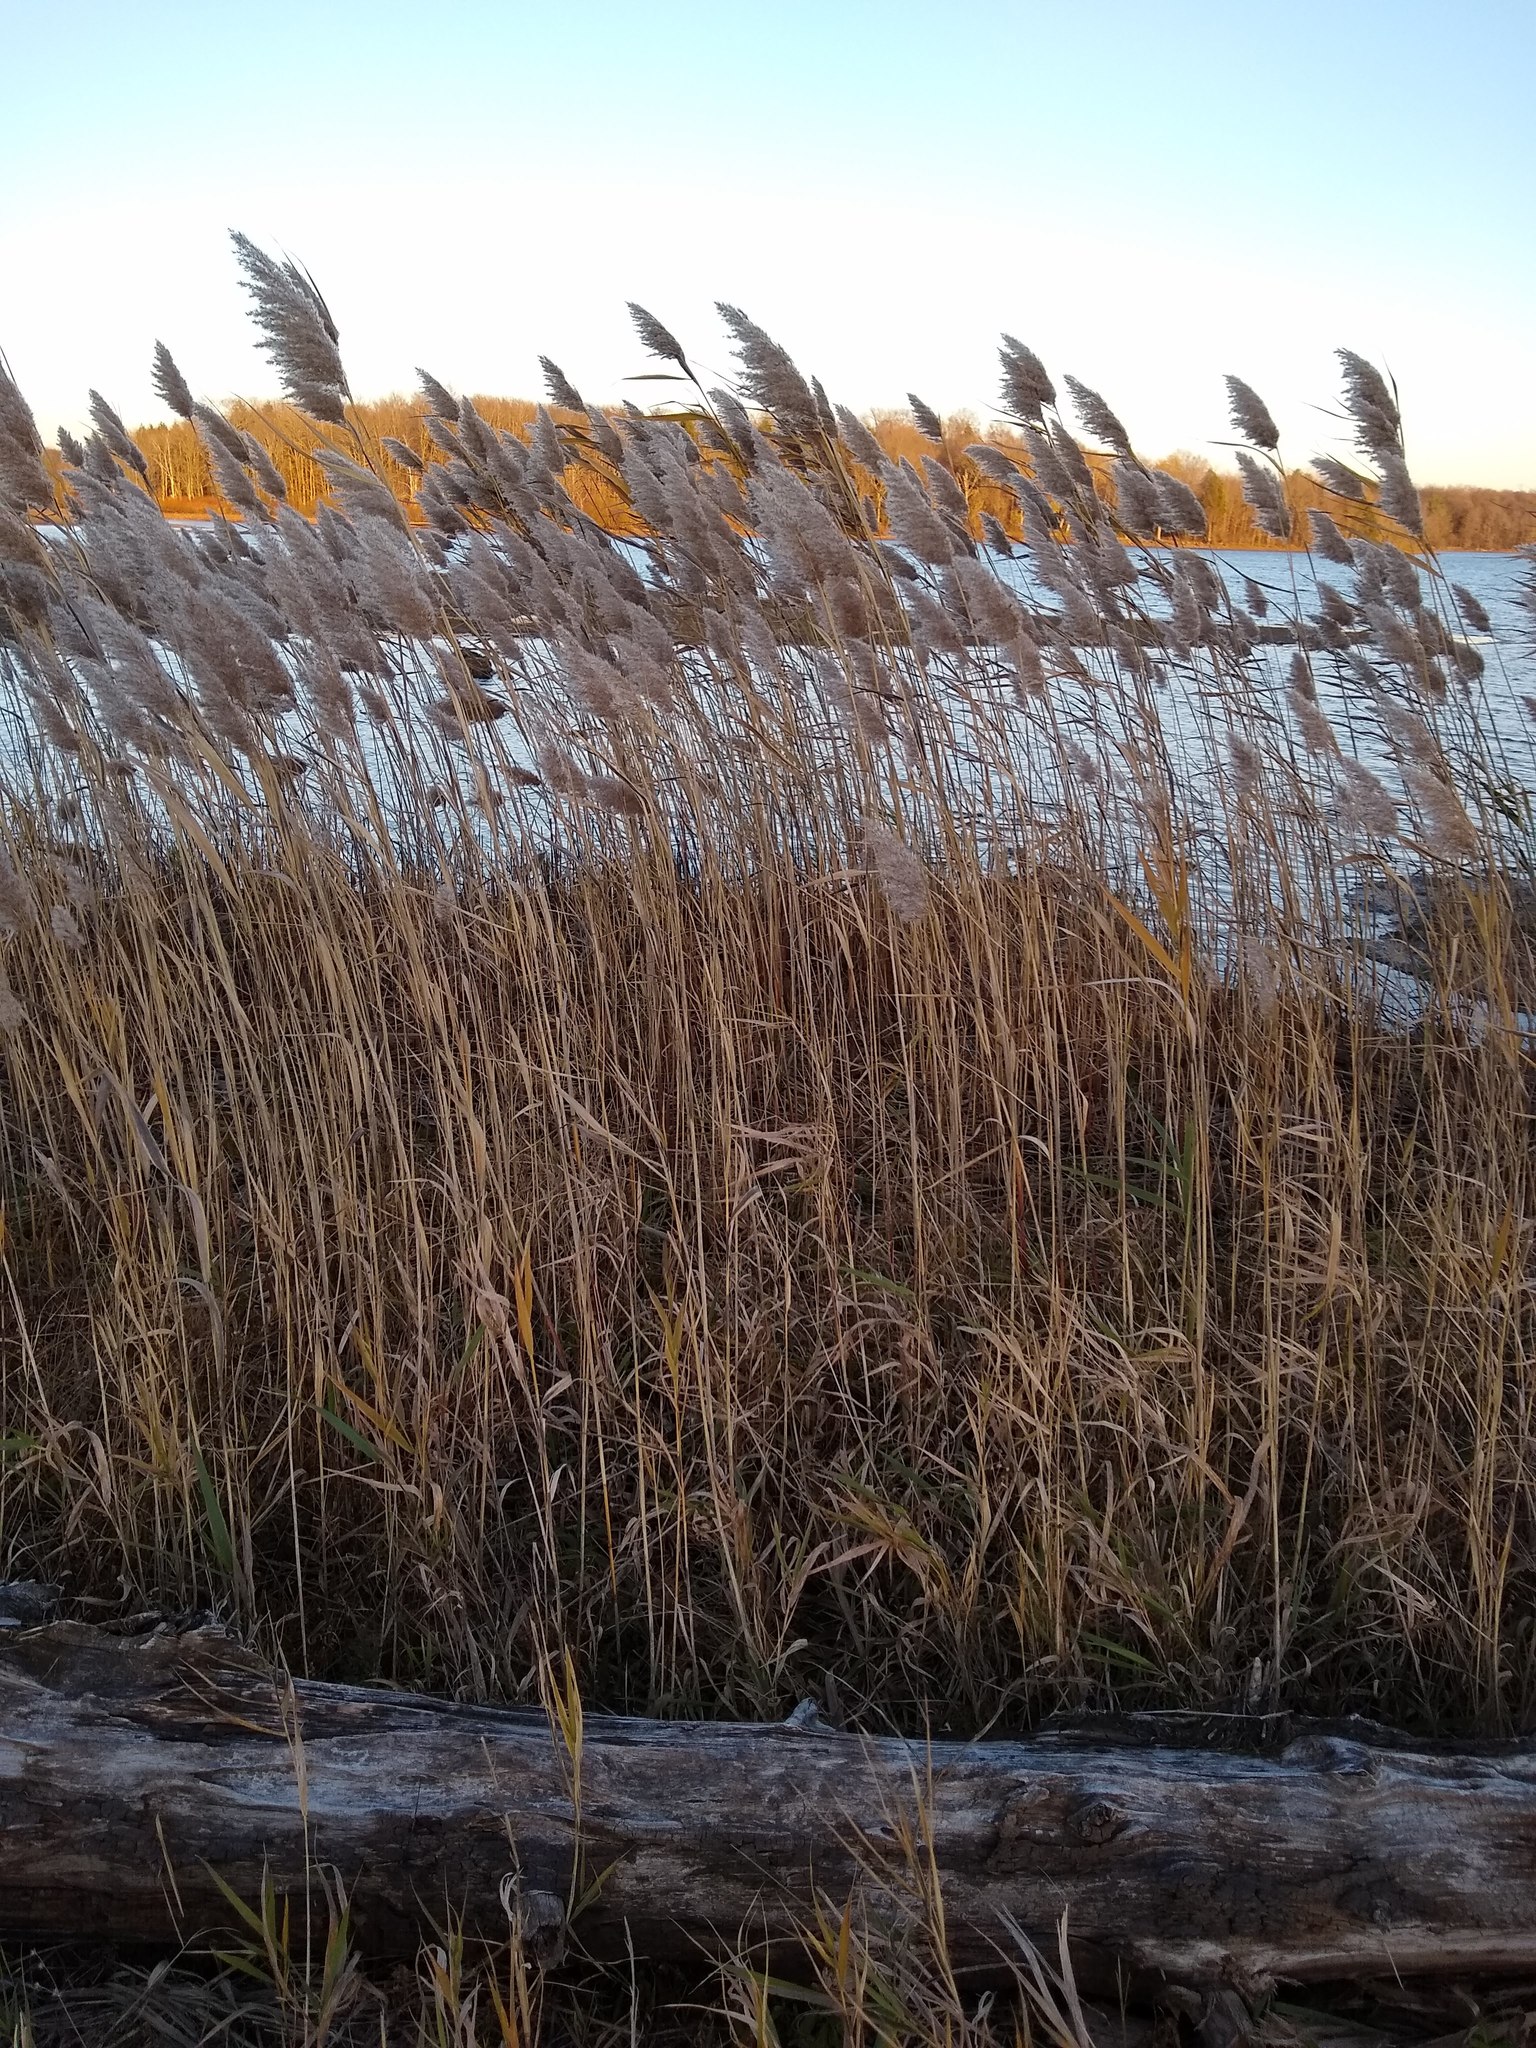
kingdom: Plantae
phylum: Tracheophyta
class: Liliopsida
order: Poales
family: Poaceae
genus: Phragmites
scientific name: Phragmites australis
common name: Common reed
